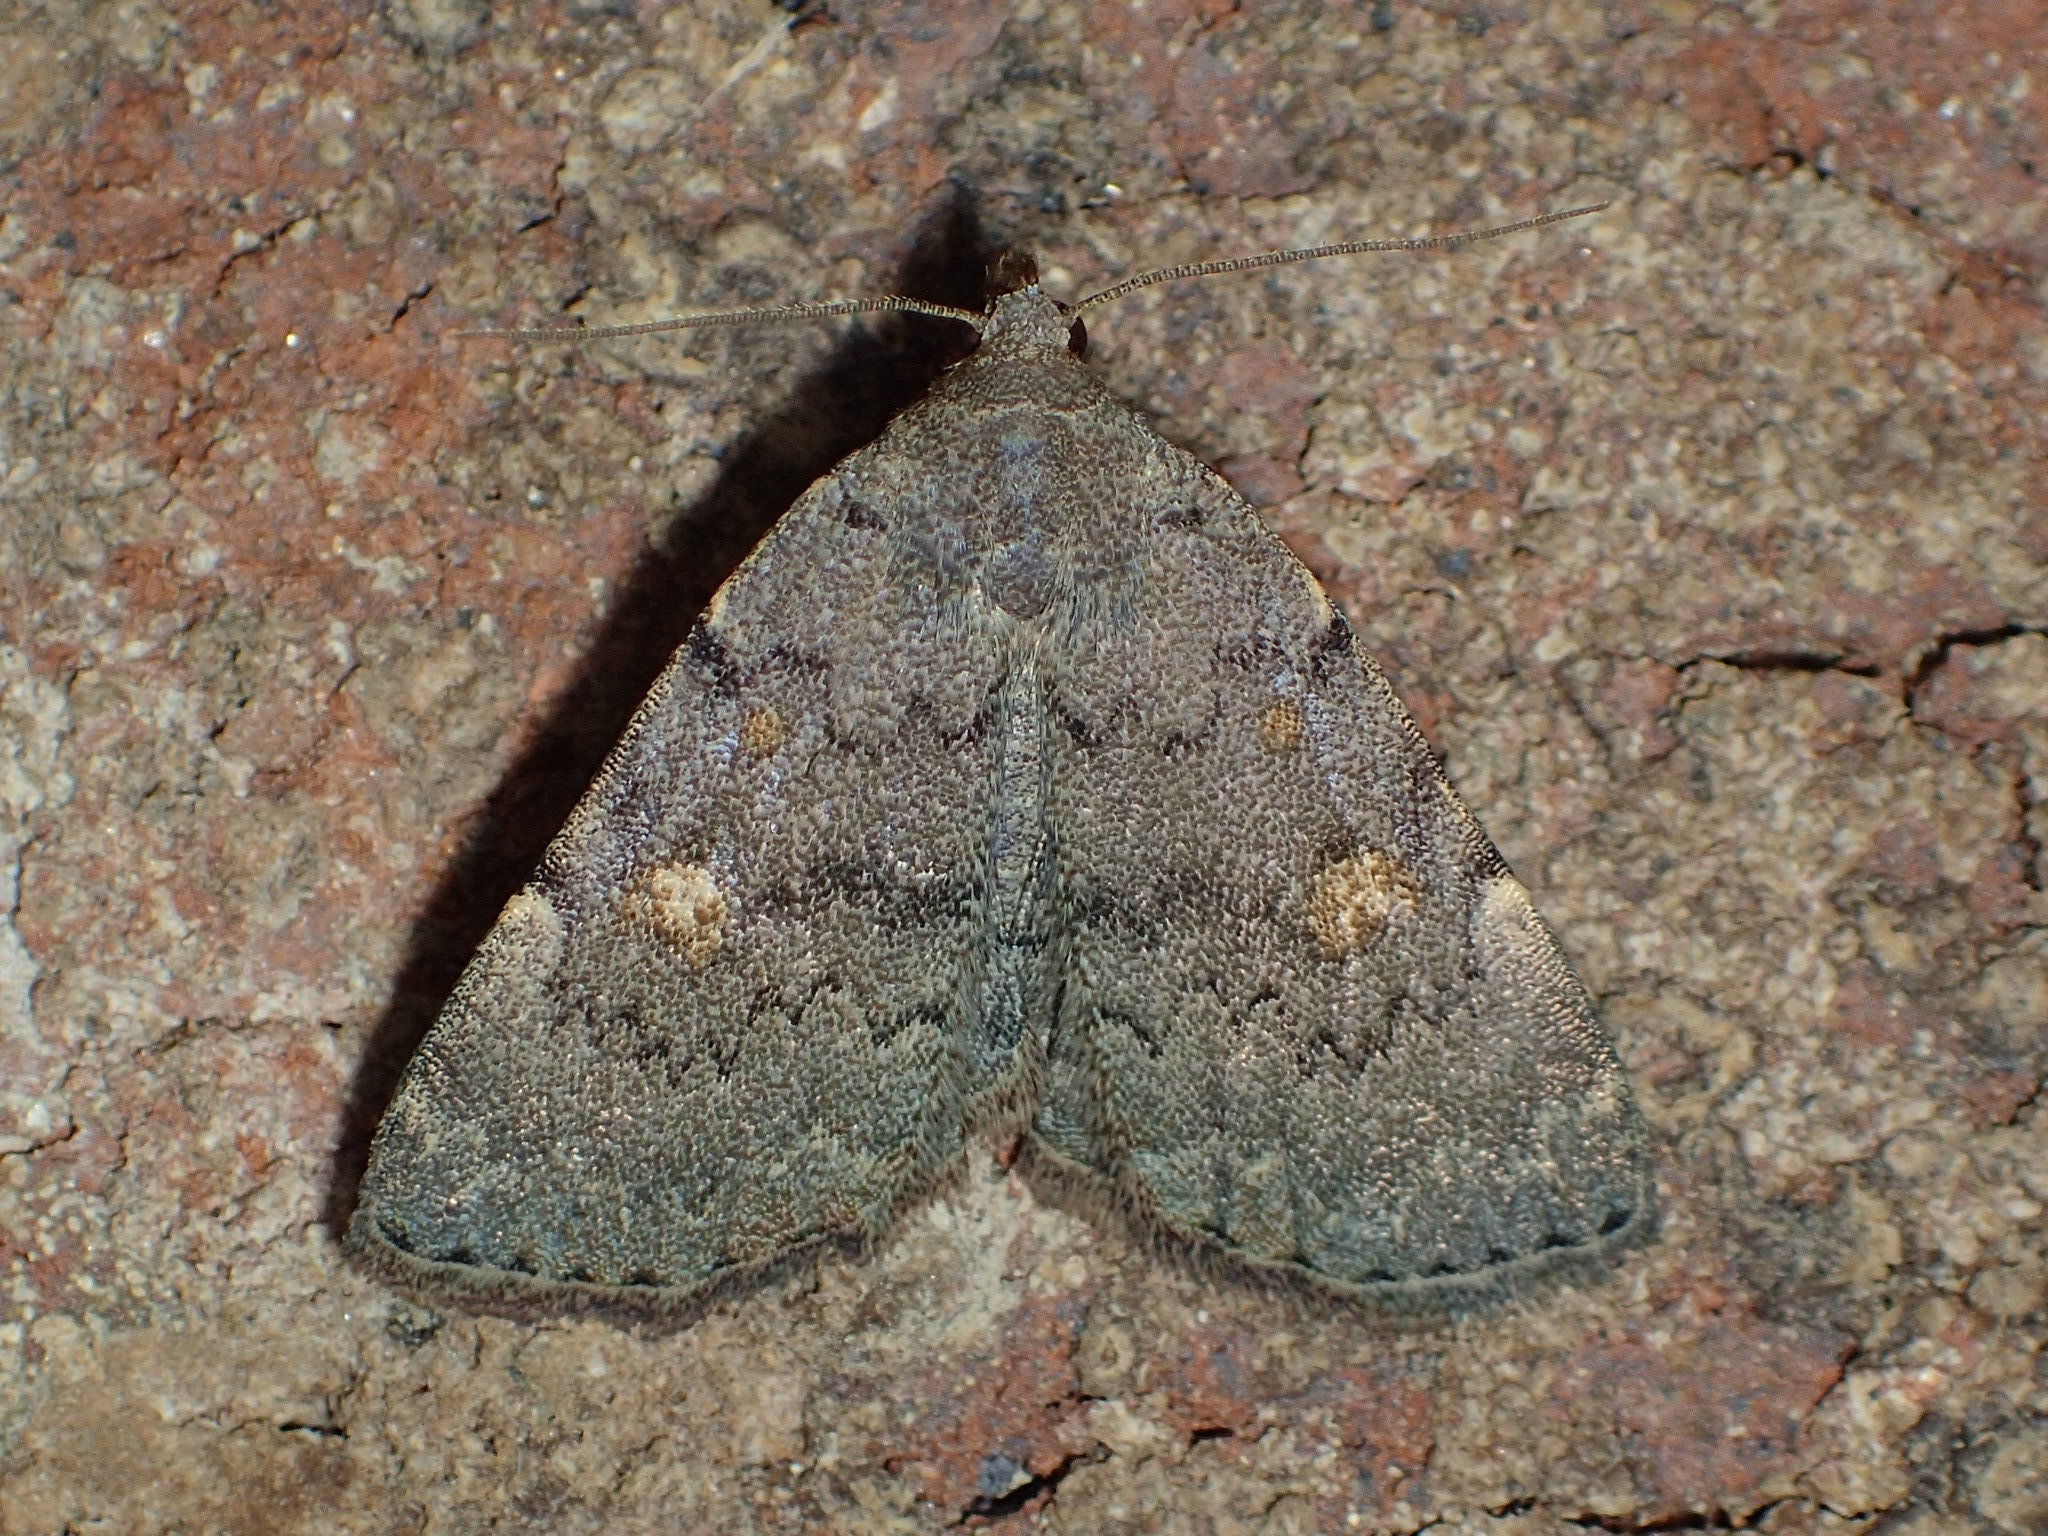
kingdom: Animalia
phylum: Arthropoda
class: Insecta
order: Lepidoptera
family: Erebidae
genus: Idia
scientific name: Idia aemula
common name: Common idia moth
